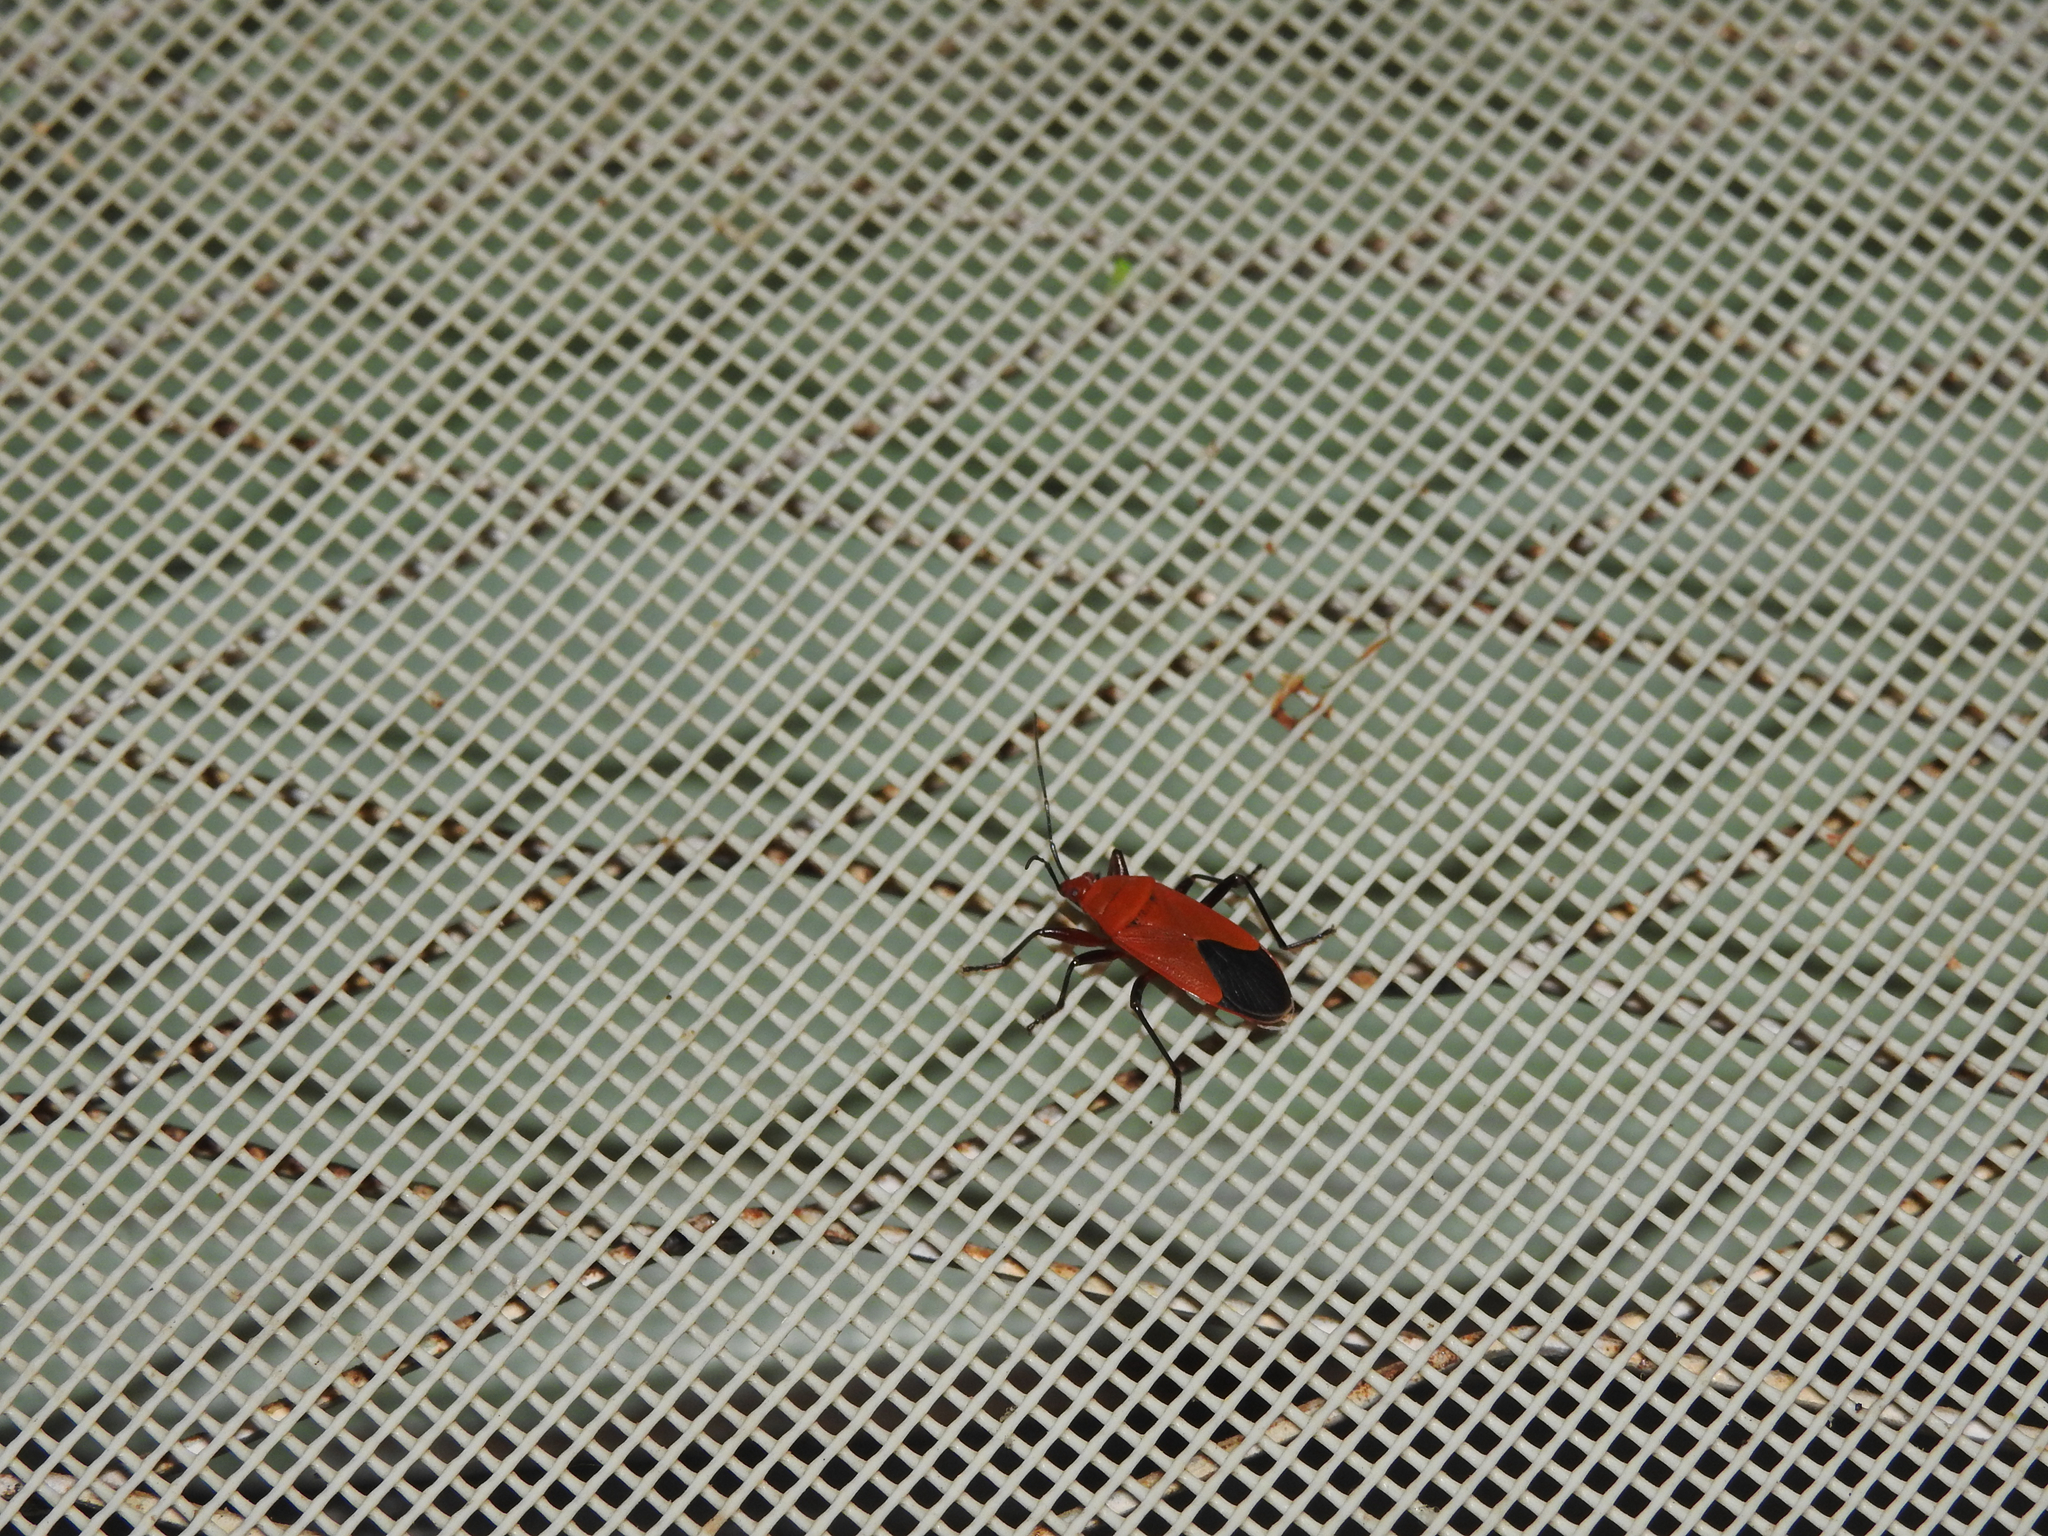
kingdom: Animalia
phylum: Arthropoda
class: Insecta
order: Hemiptera
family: Pyrrhocoridae
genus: Antilochus
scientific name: Antilochus
